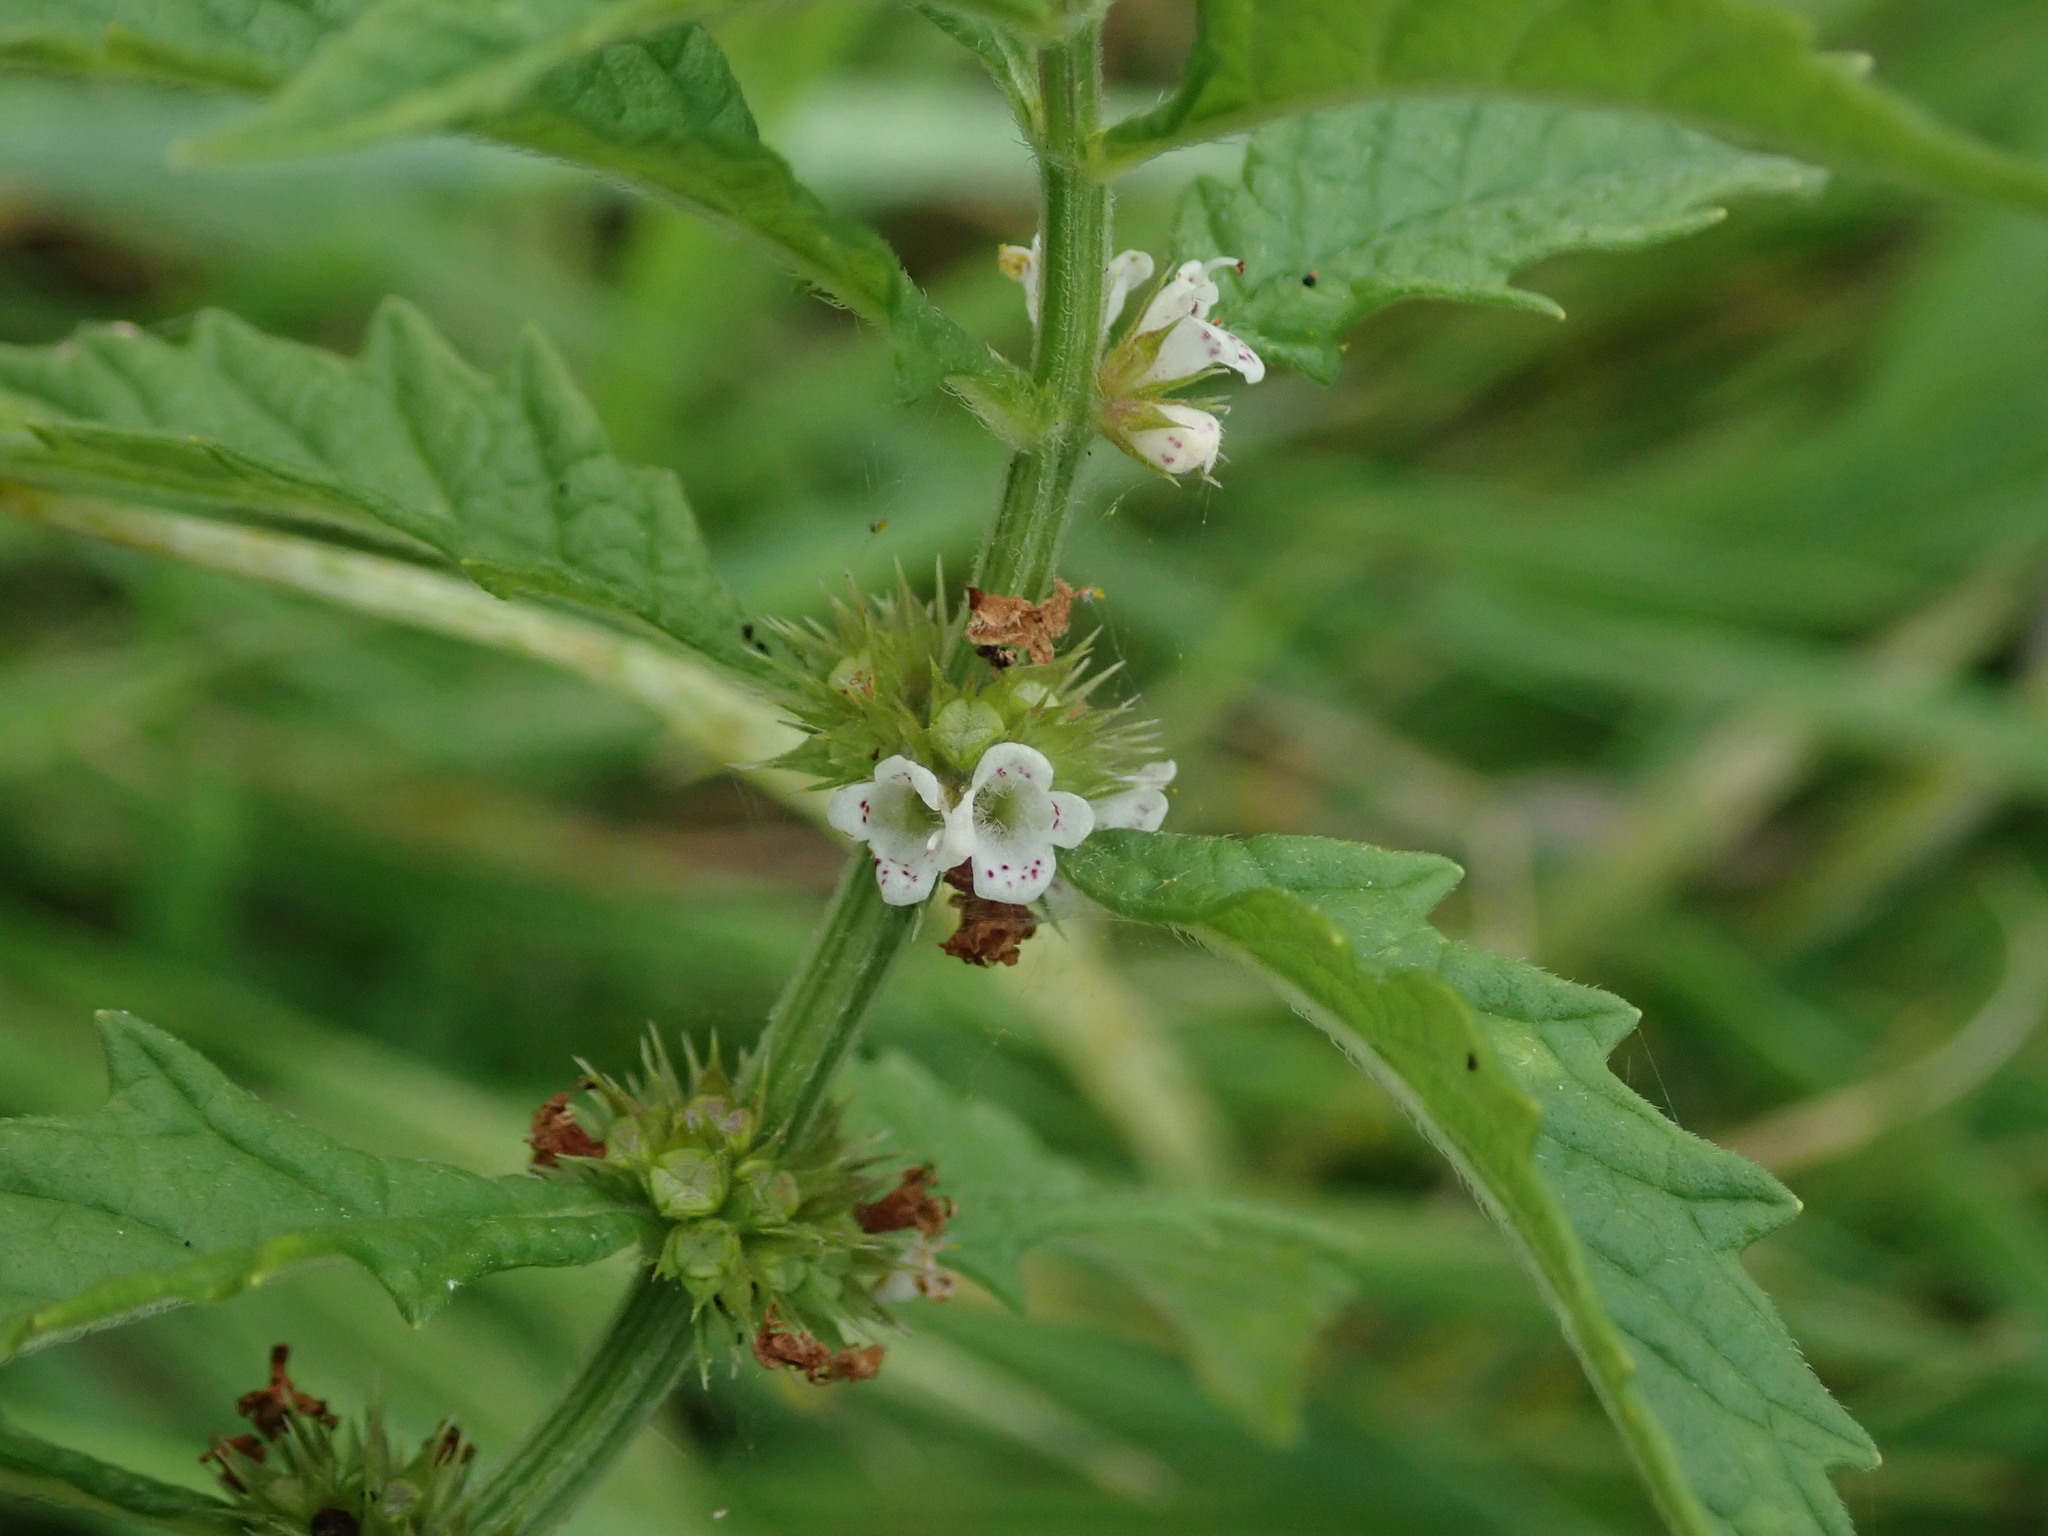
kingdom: Plantae
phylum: Tracheophyta
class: Magnoliopsida
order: Lamiales
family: Lamiaceae
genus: Lycopus
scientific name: Lycopus europaeus
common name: European bugleweed
